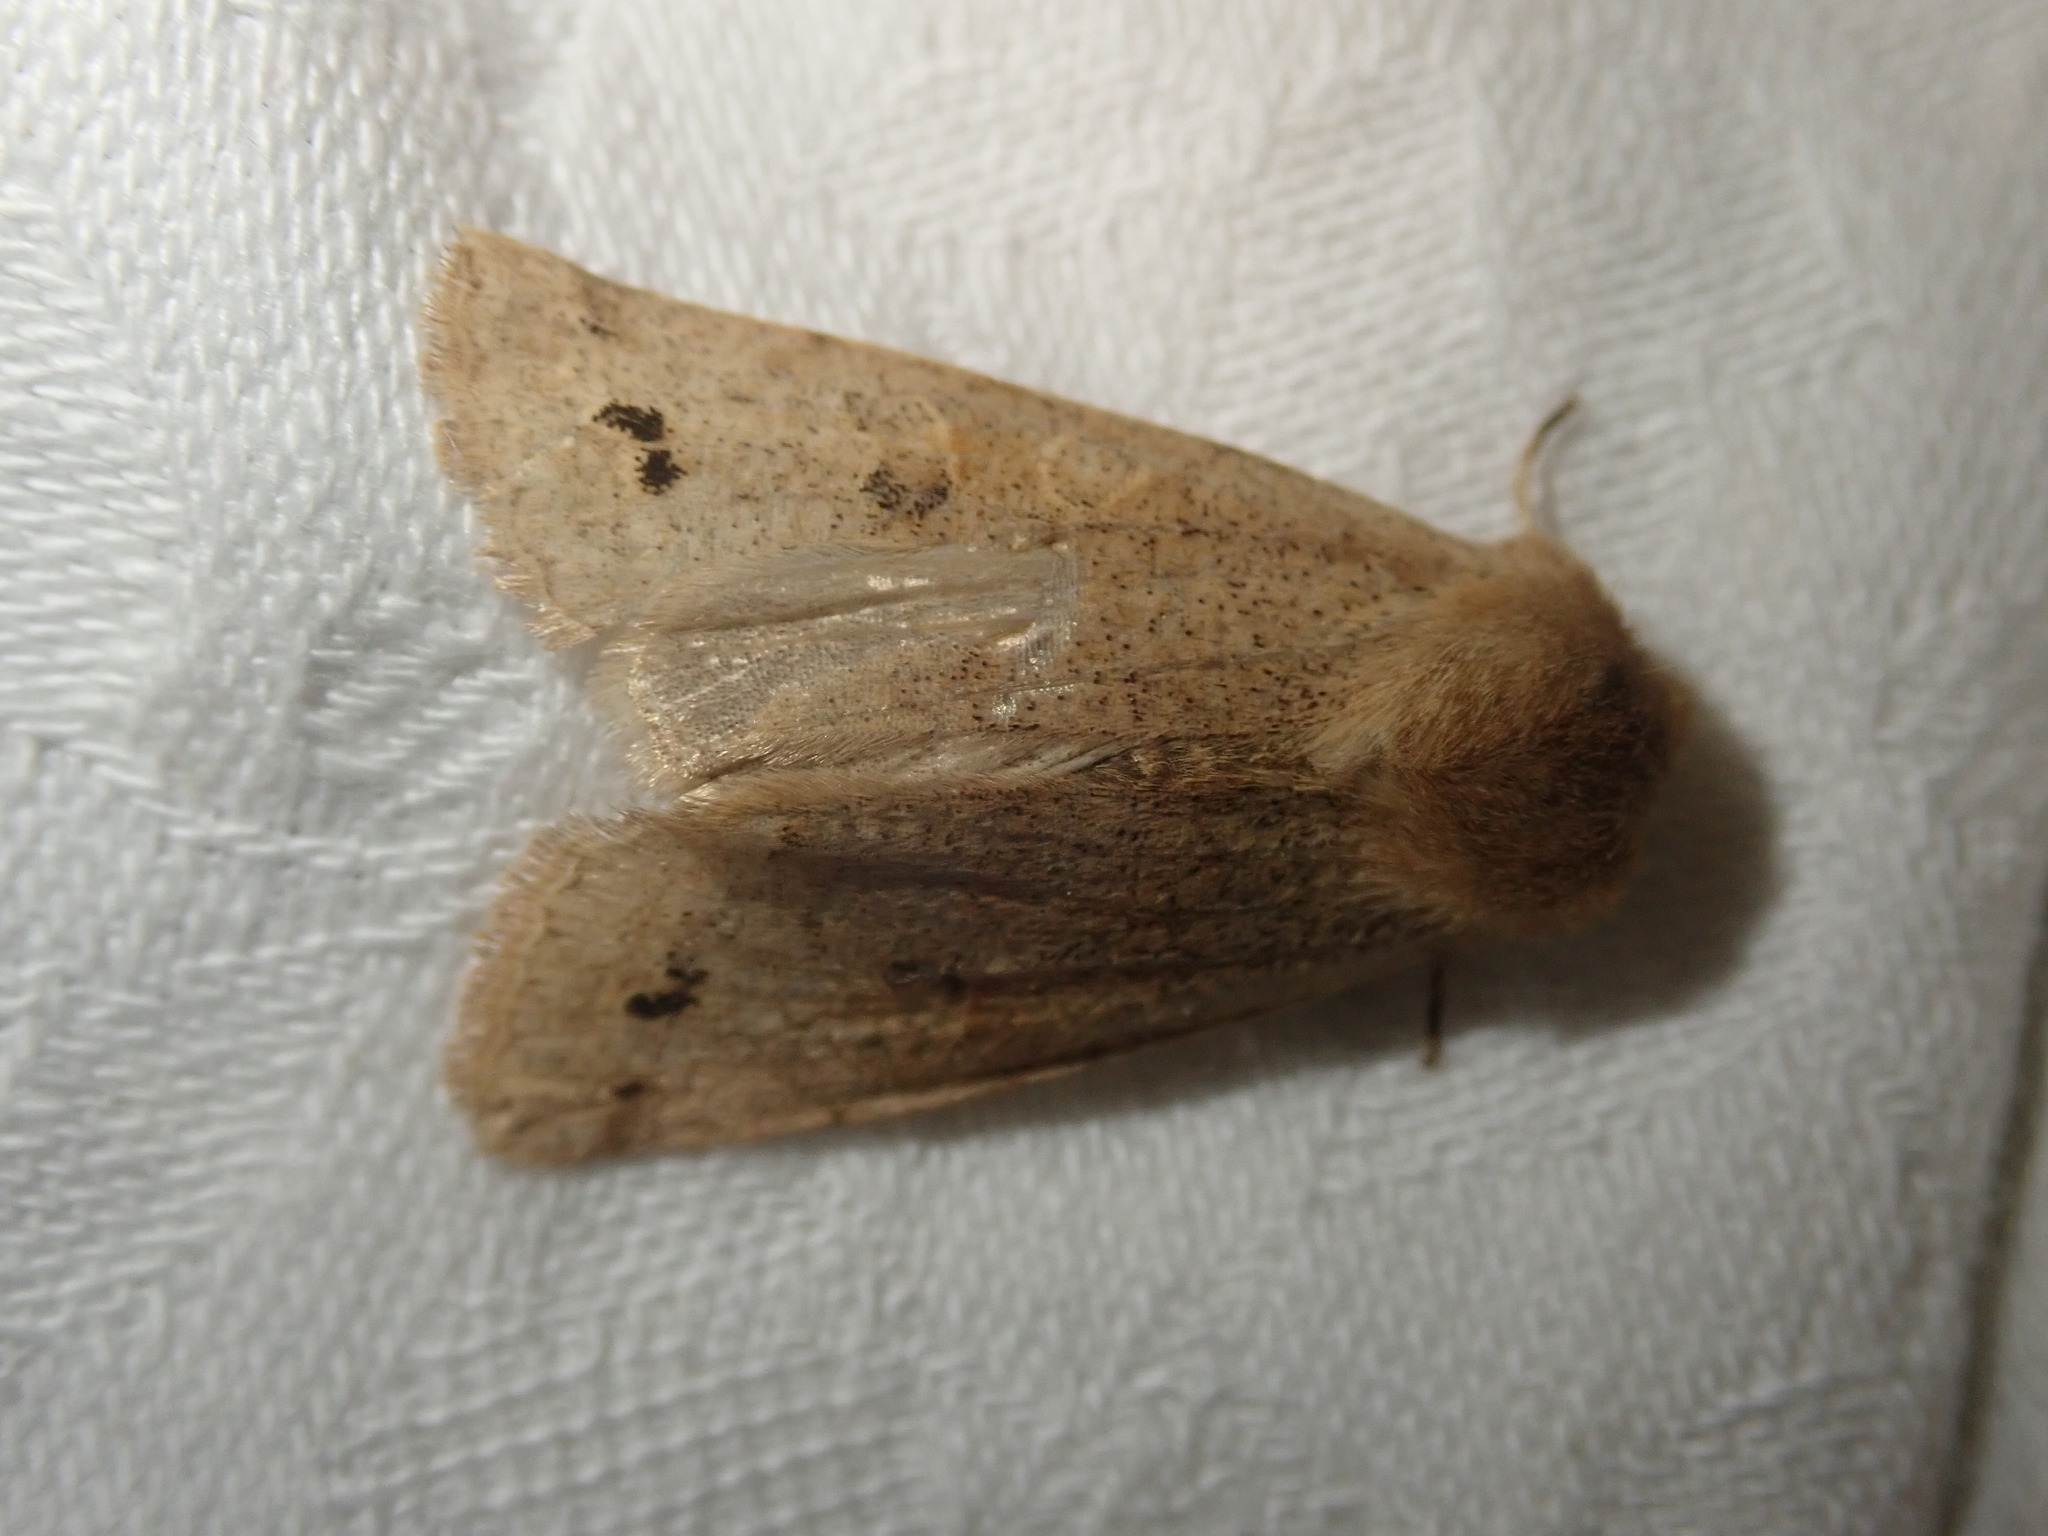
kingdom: Animalia
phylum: Arthropoda
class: Insecta
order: Lepidoptera
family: Noctuidae
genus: Anorthoa
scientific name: Anorthoa munda
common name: Twin-spotted quaker
